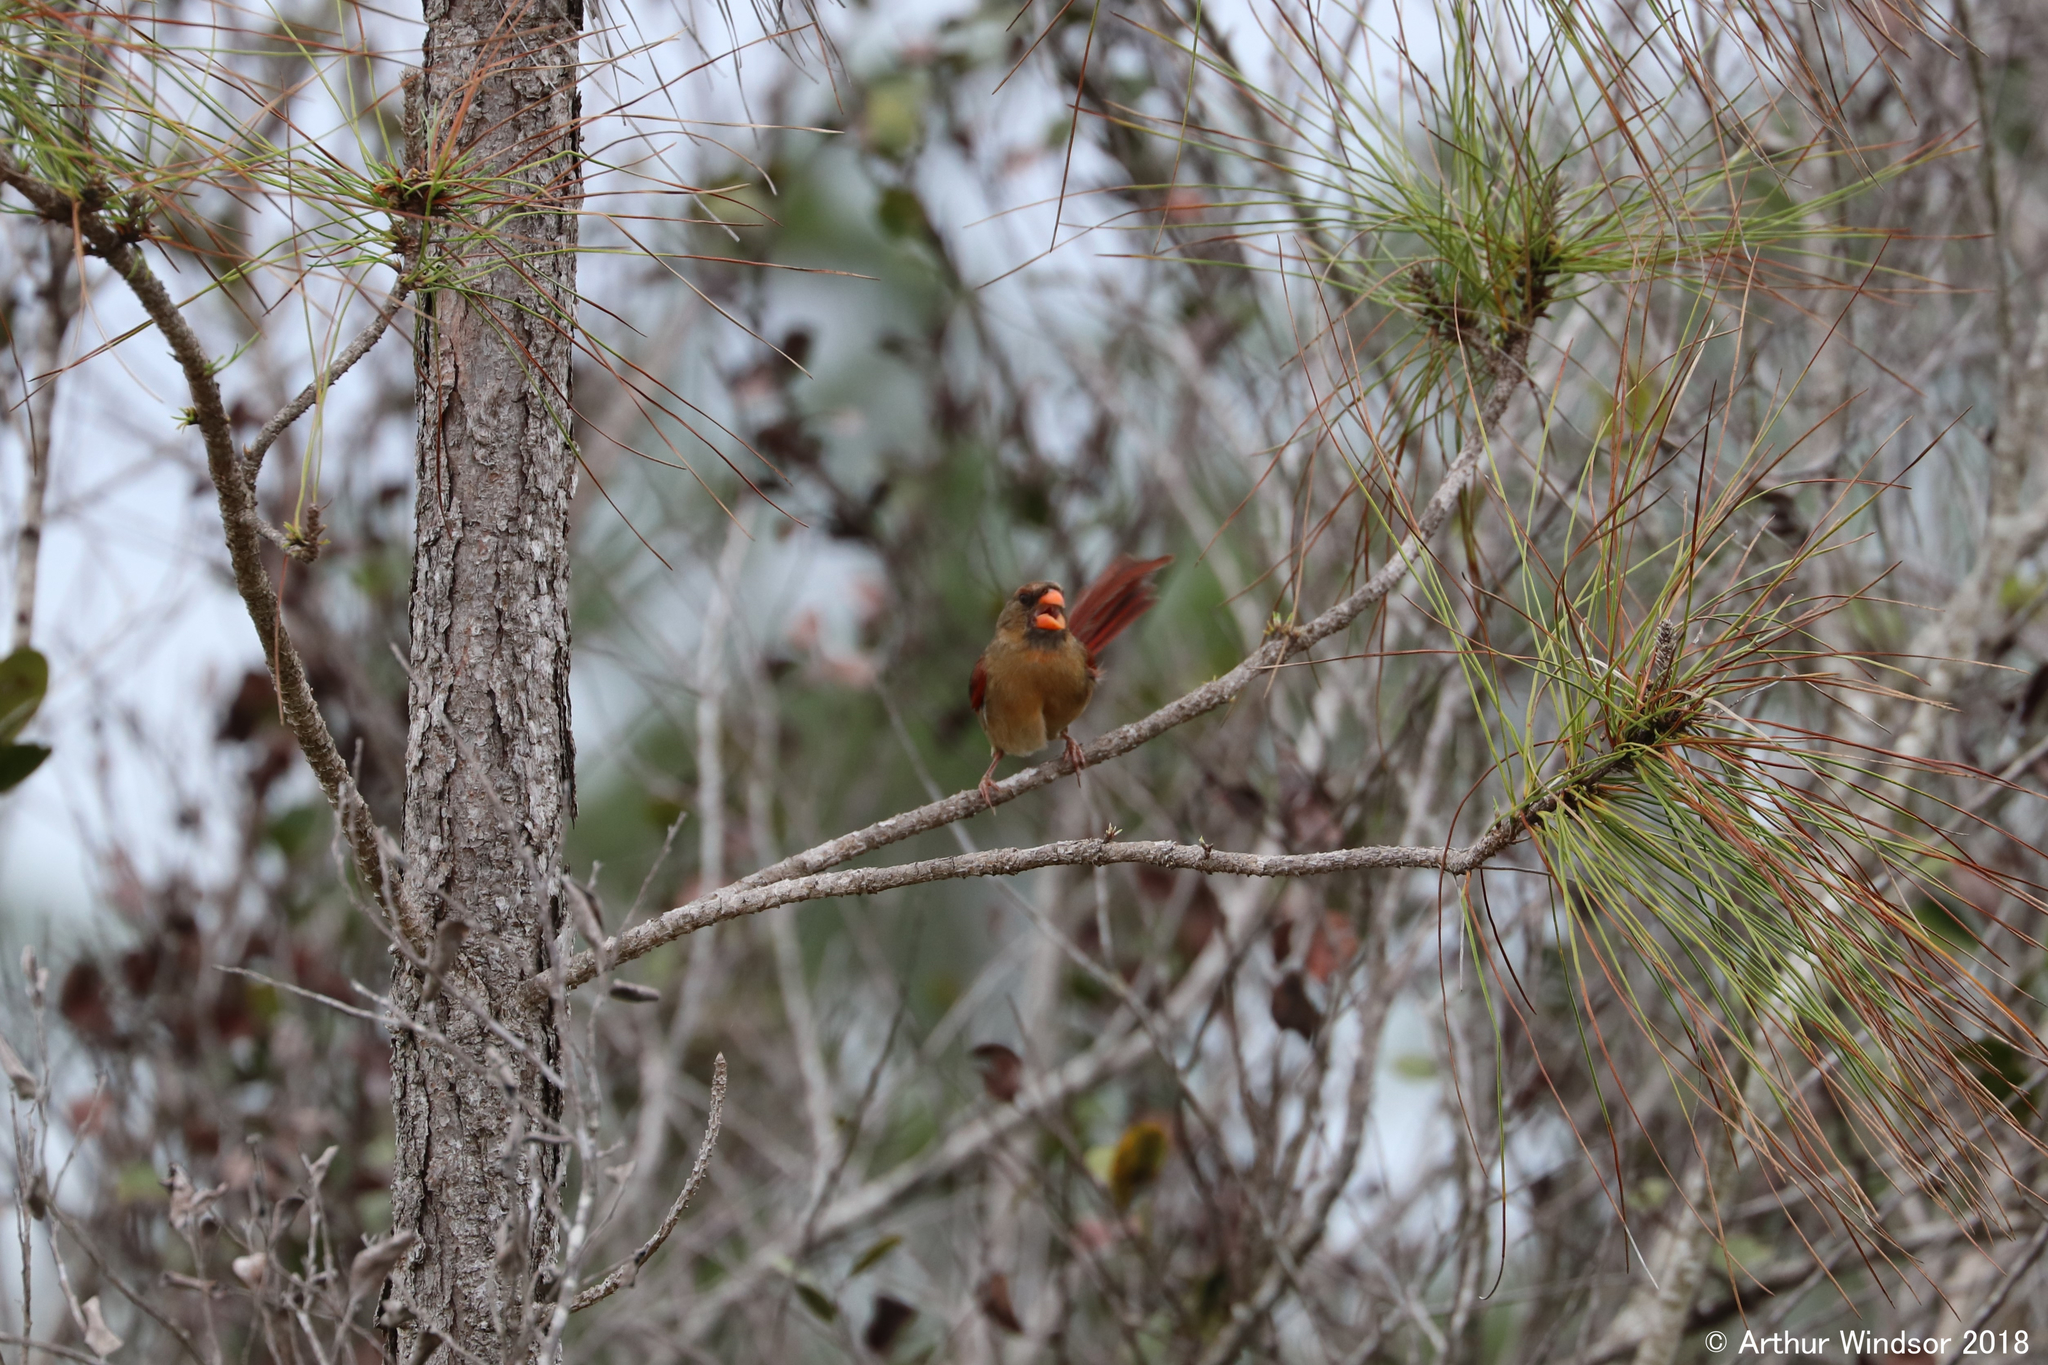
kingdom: Animalia
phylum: Chordata
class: Aves
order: Passeriformes
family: Cardinalidae
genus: Cardinalis
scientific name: Cardinalis cardinalis
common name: Northern cardinal
